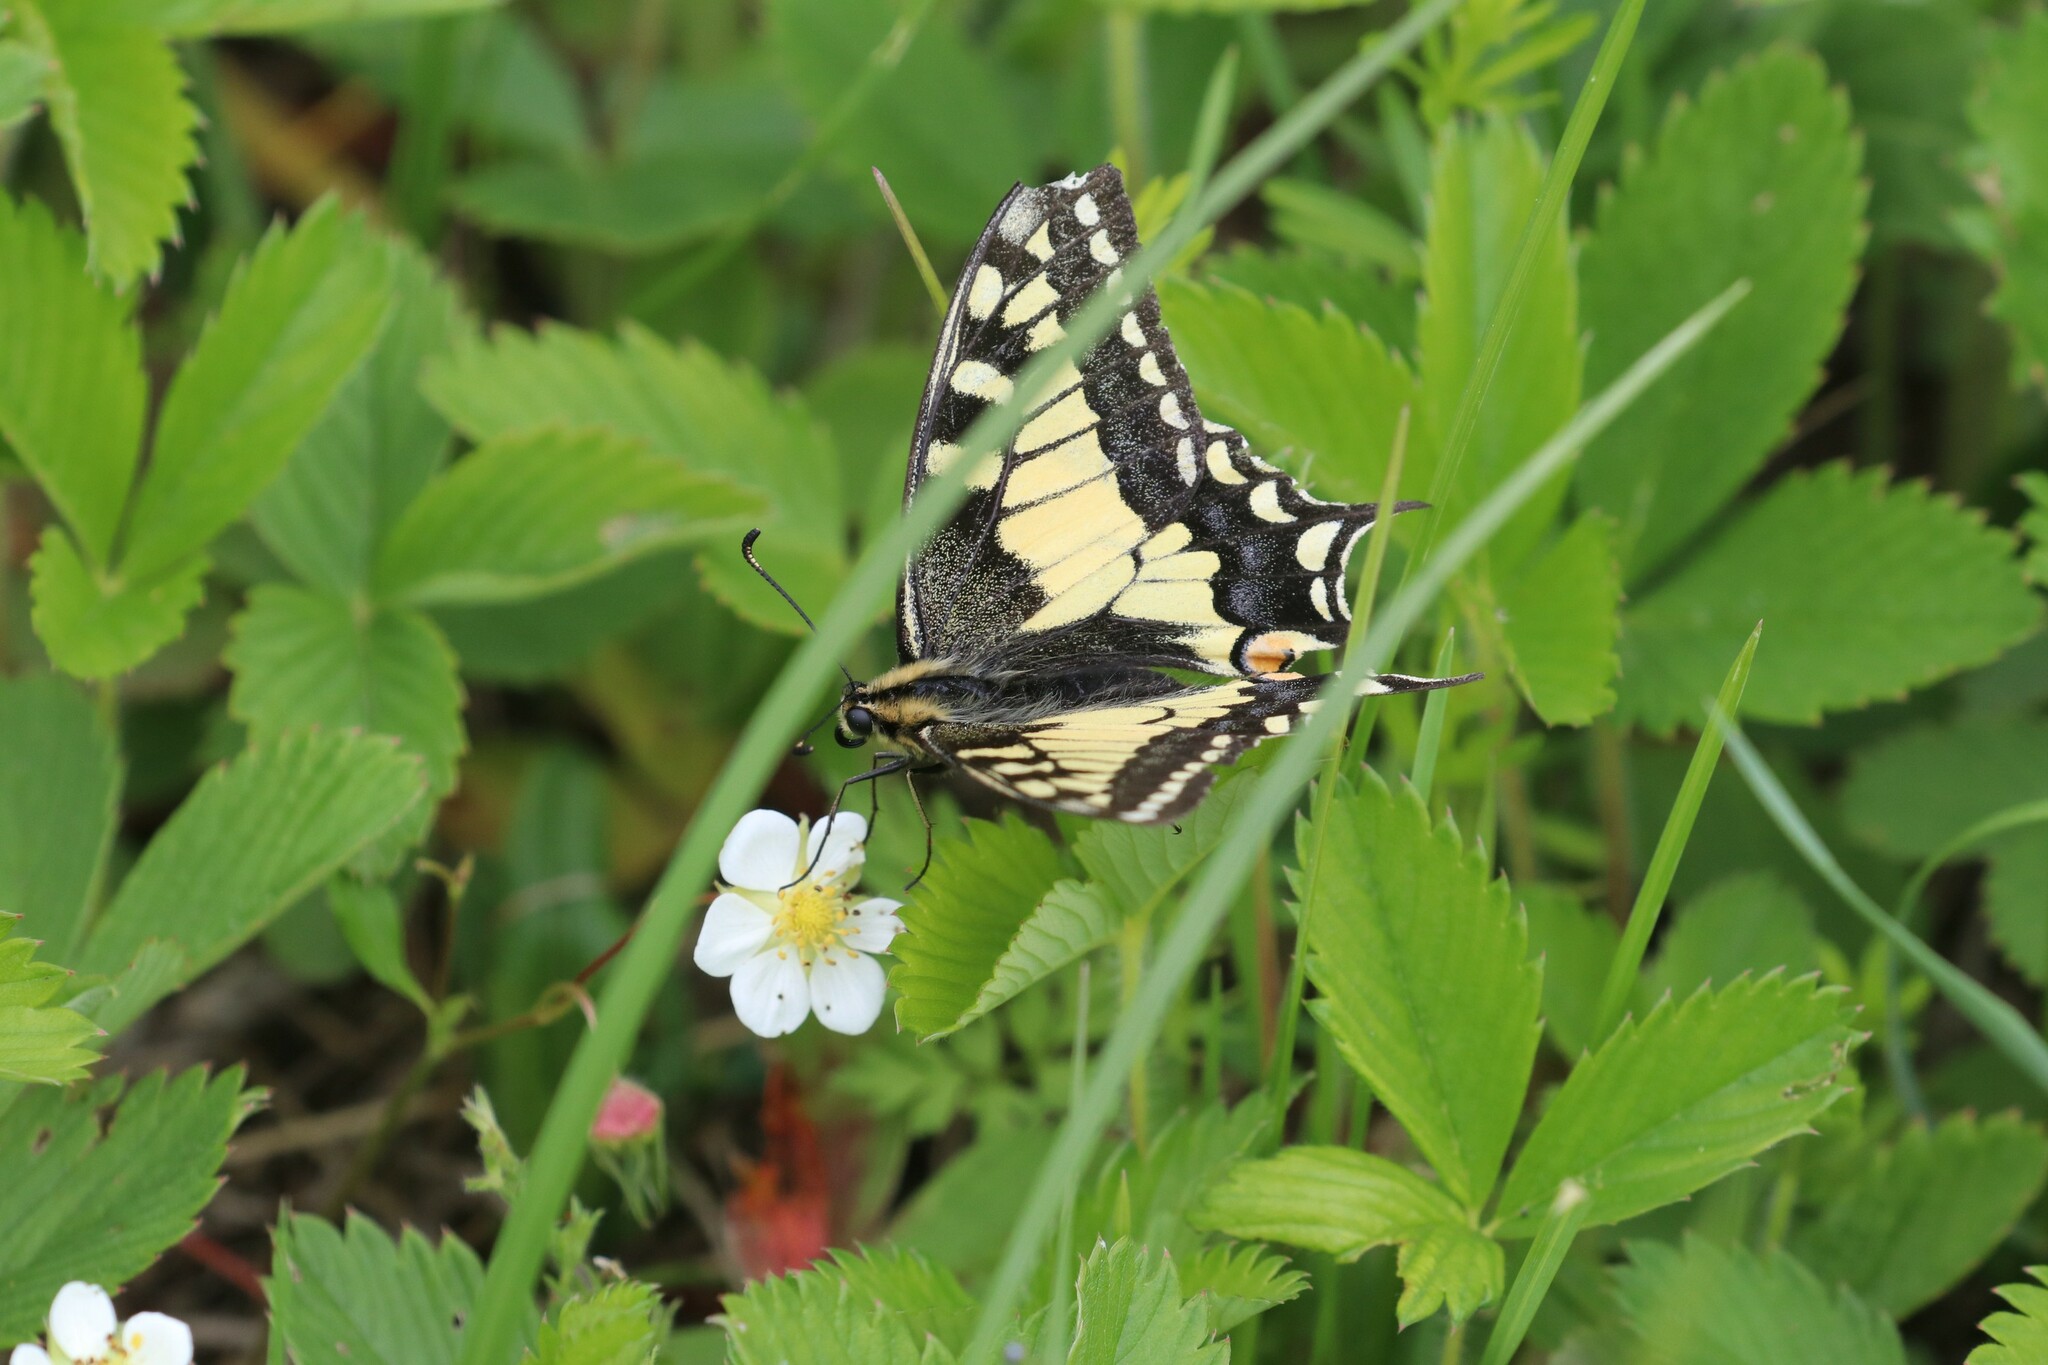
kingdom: Animalia
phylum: Arthropoda
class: Insecta
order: Lepidoptera
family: Papilionidae
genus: Papilio
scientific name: Papilio machaon
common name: Swallowtail
